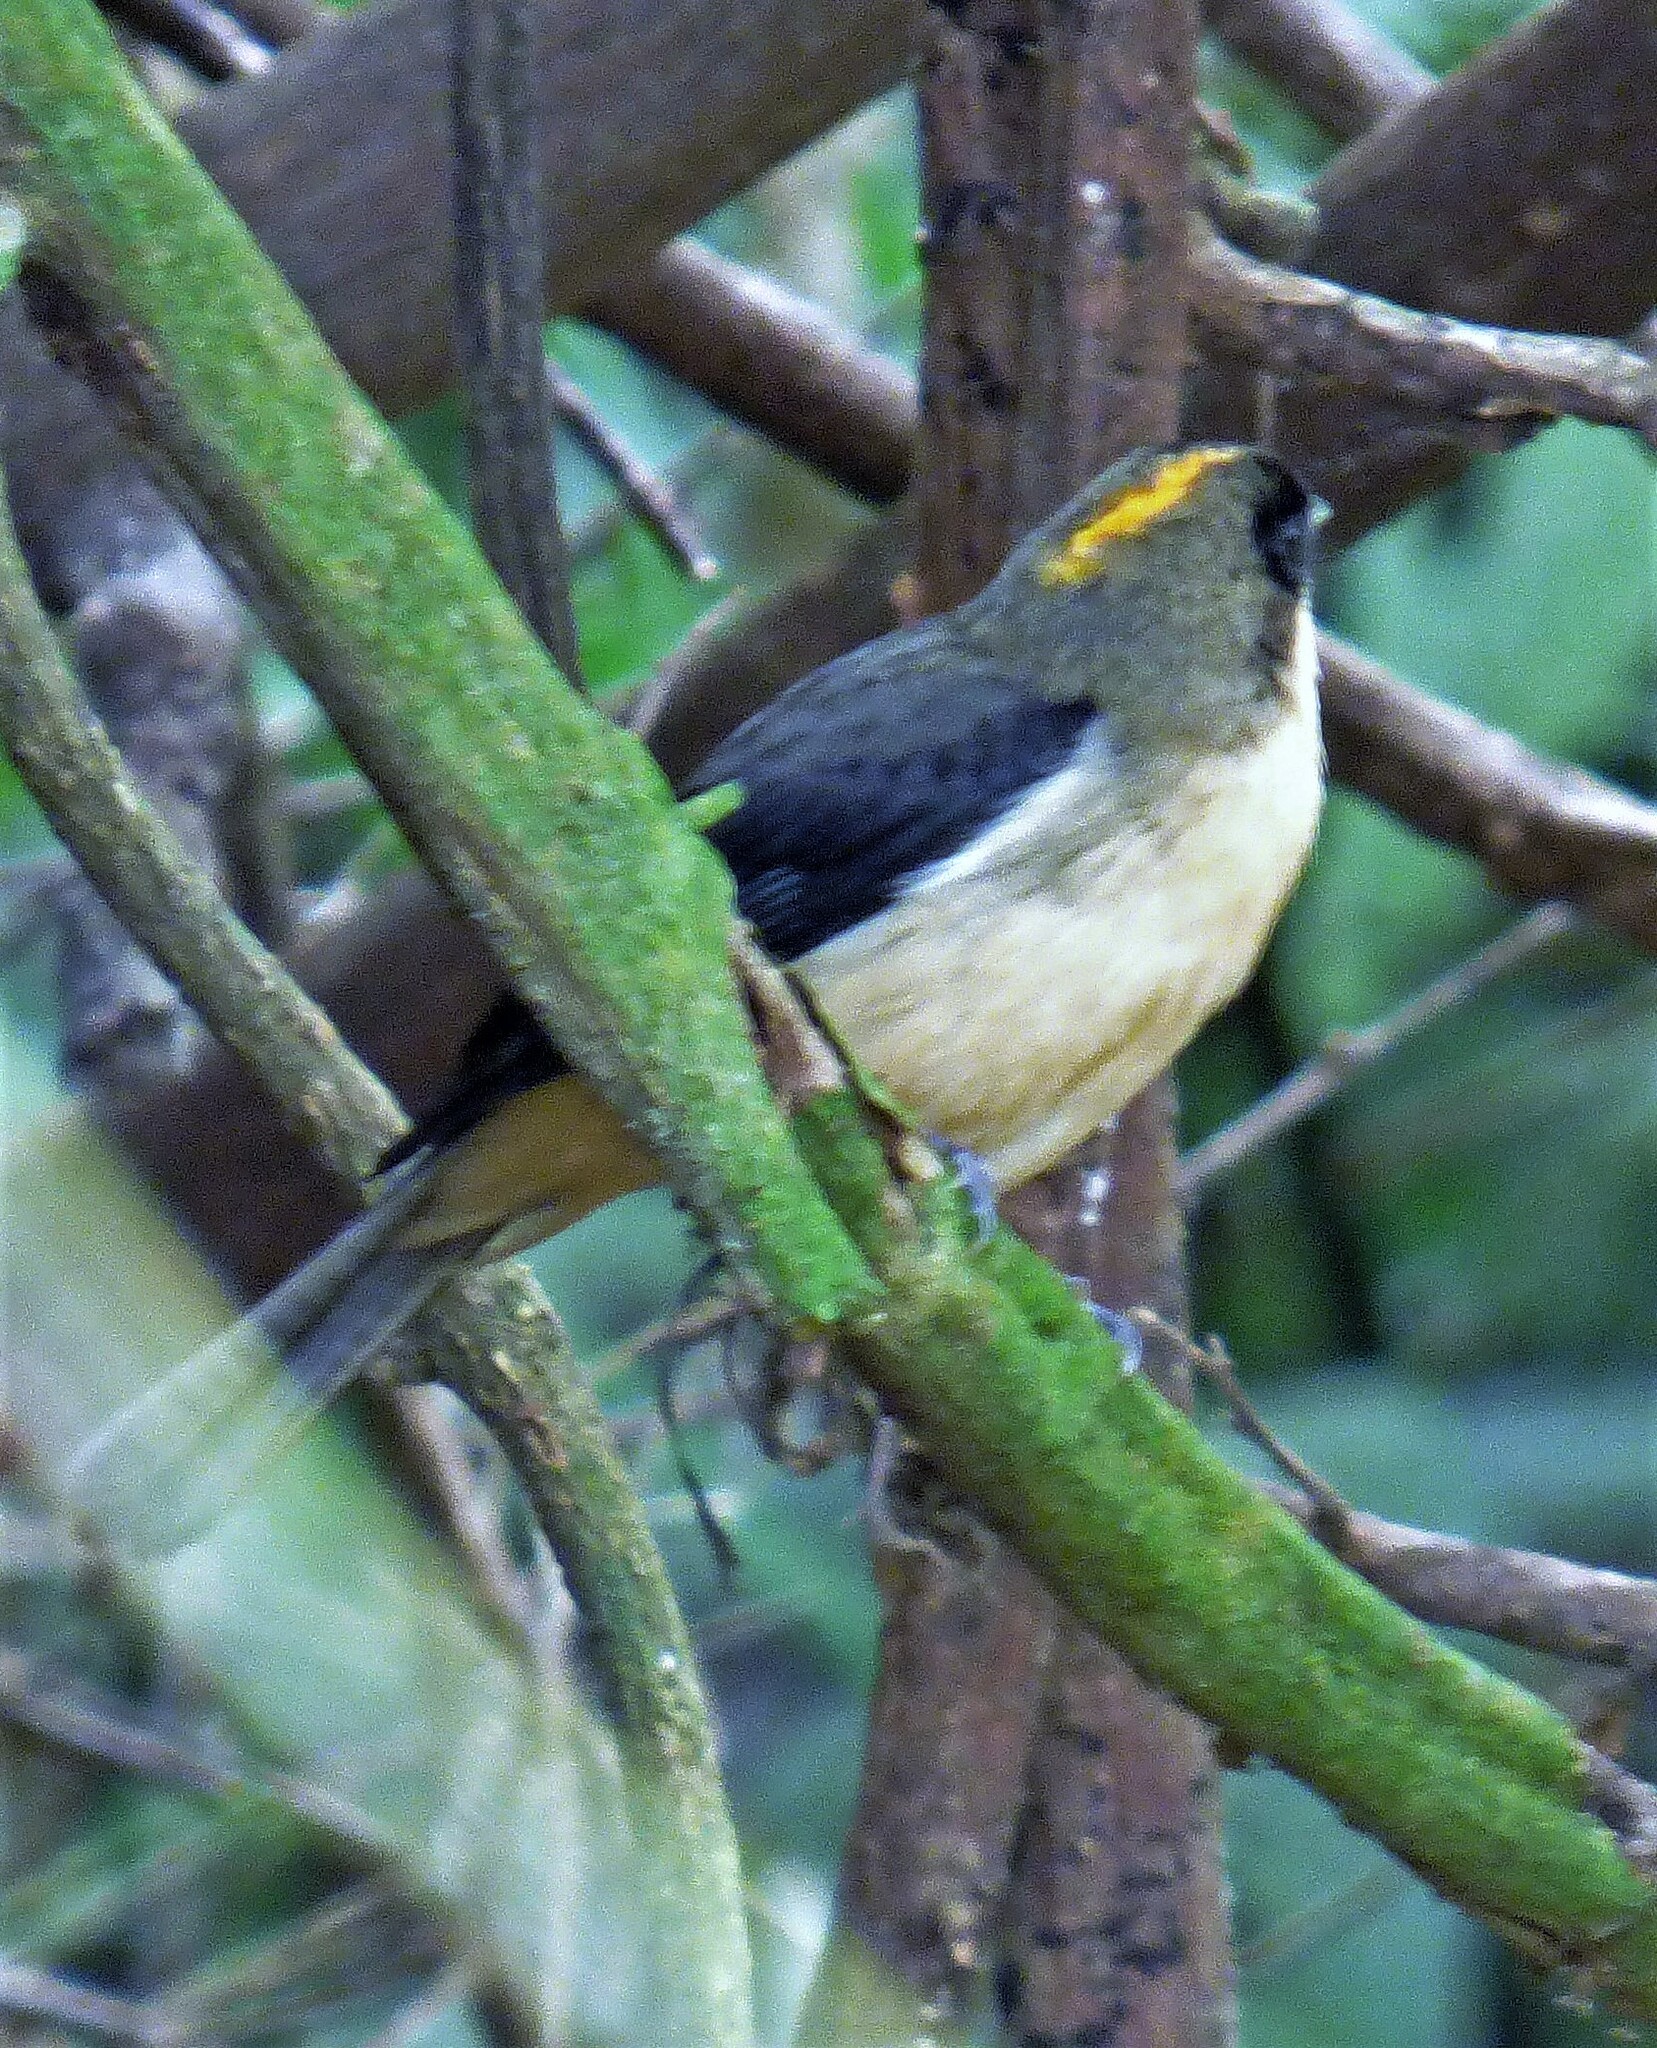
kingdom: Animalia
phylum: Chordata
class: Aves
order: Passeriformes
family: Thraupidae
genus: Trichothraupis
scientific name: Trichothraupis melanops
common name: Black-goggled tanager
